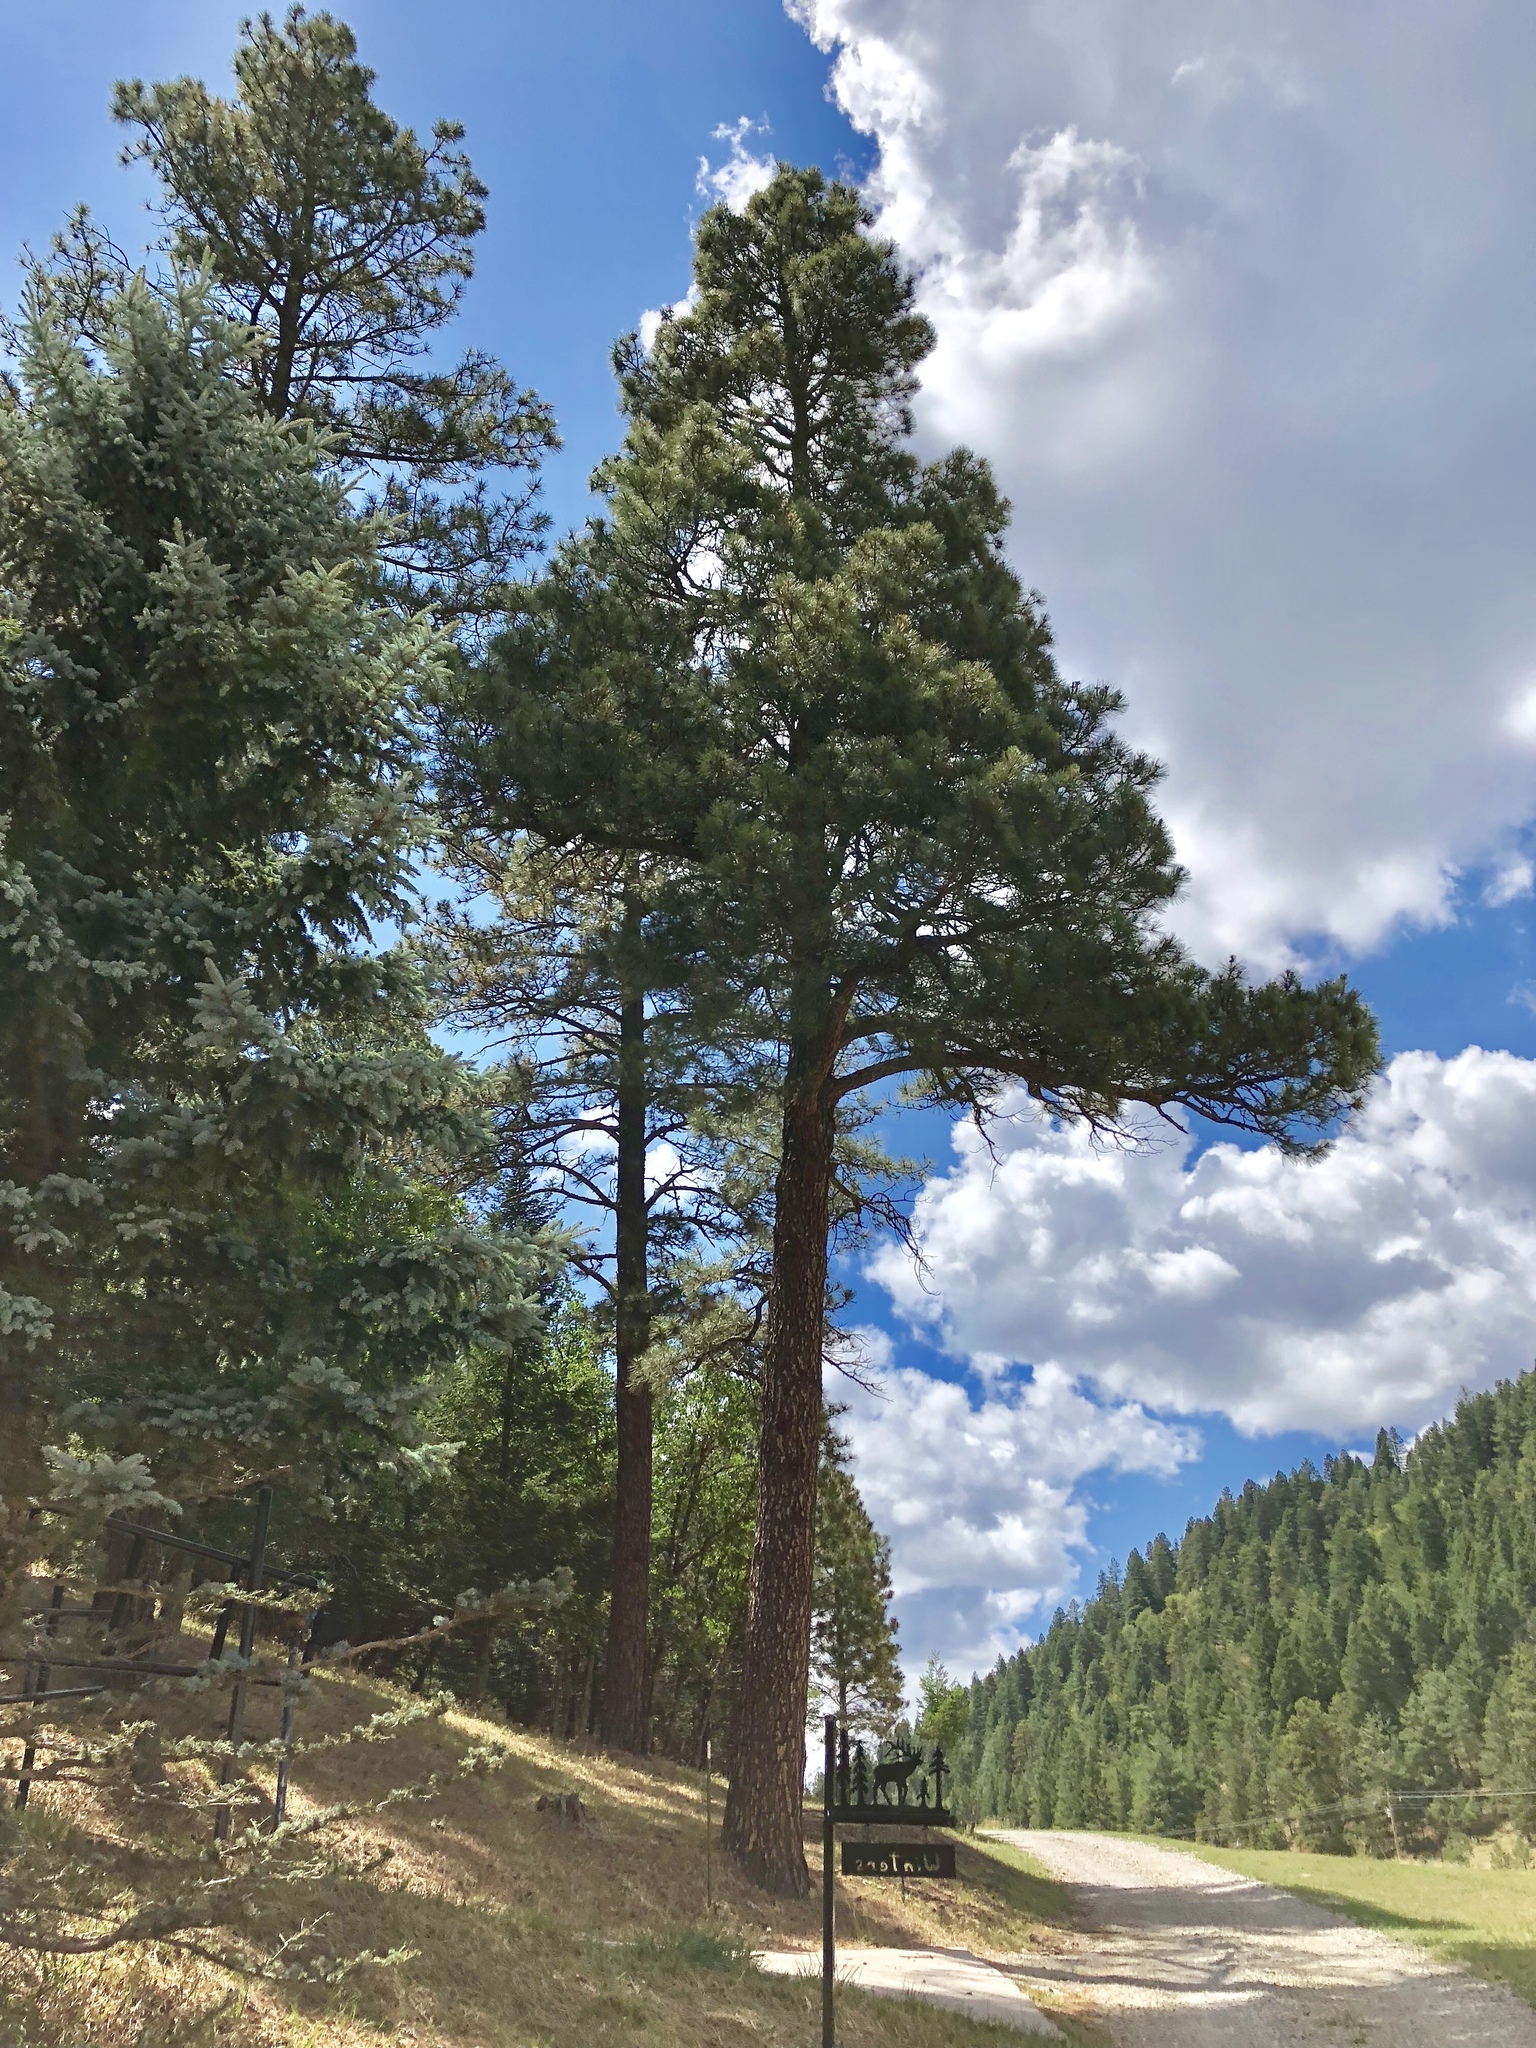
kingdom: Plantae
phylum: Tracheophyta
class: Pinopsida
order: Pinales
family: Pinaceae
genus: Pinus
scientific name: Pinus ponderosa
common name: Western yellow-pine
